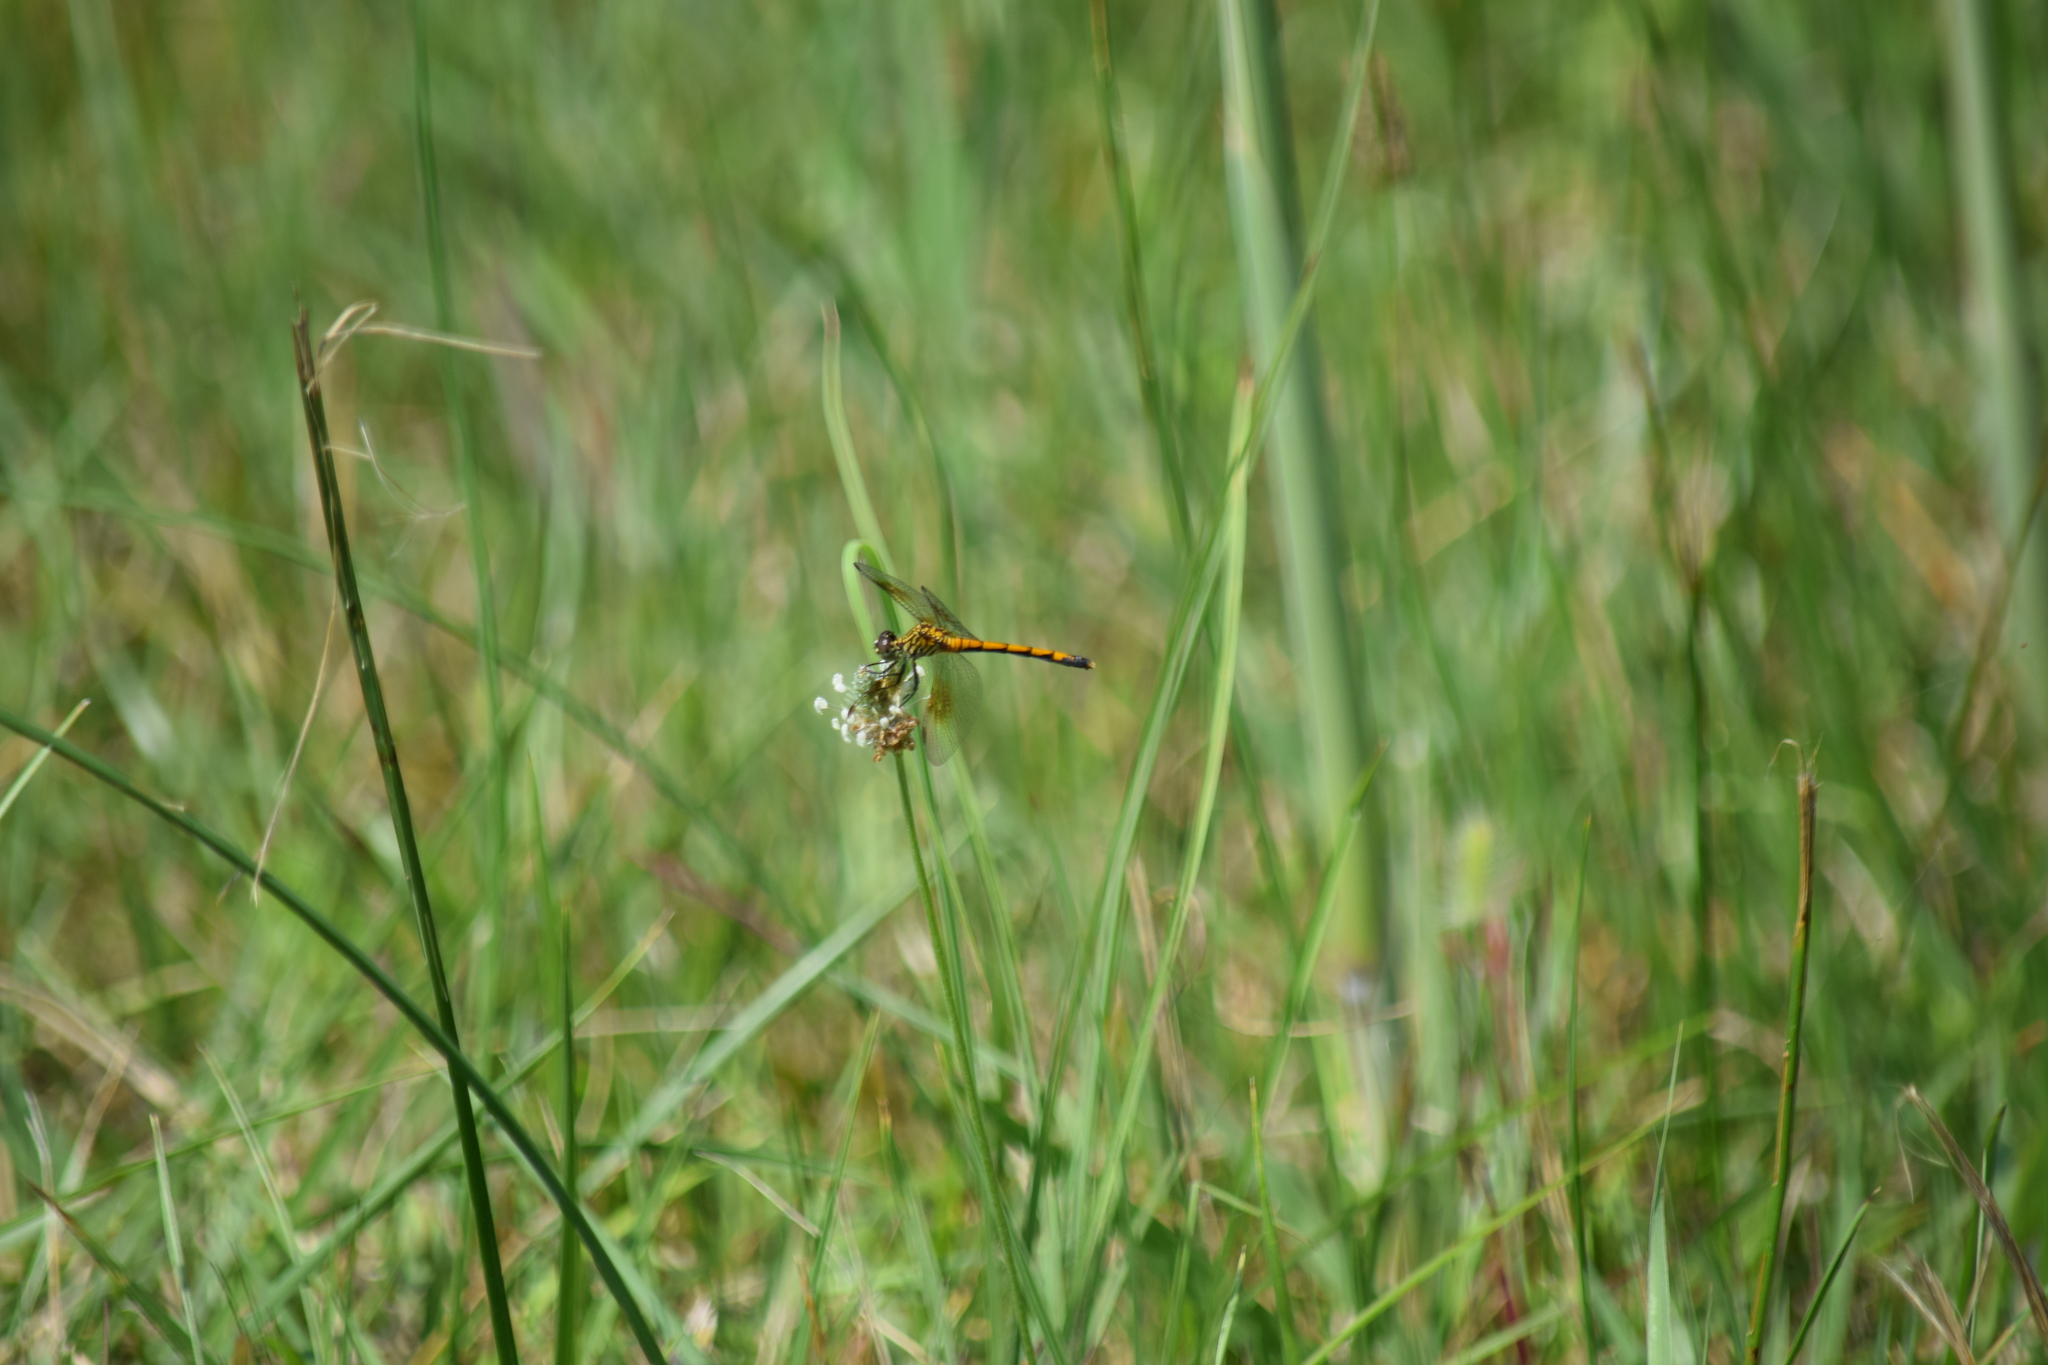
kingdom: Animalia
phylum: Arthropoda
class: Insecta
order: Odonata
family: Libellulidae
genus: Erythrodiplax
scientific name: Erythrodiplax berenice
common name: Seaside dragonlet
